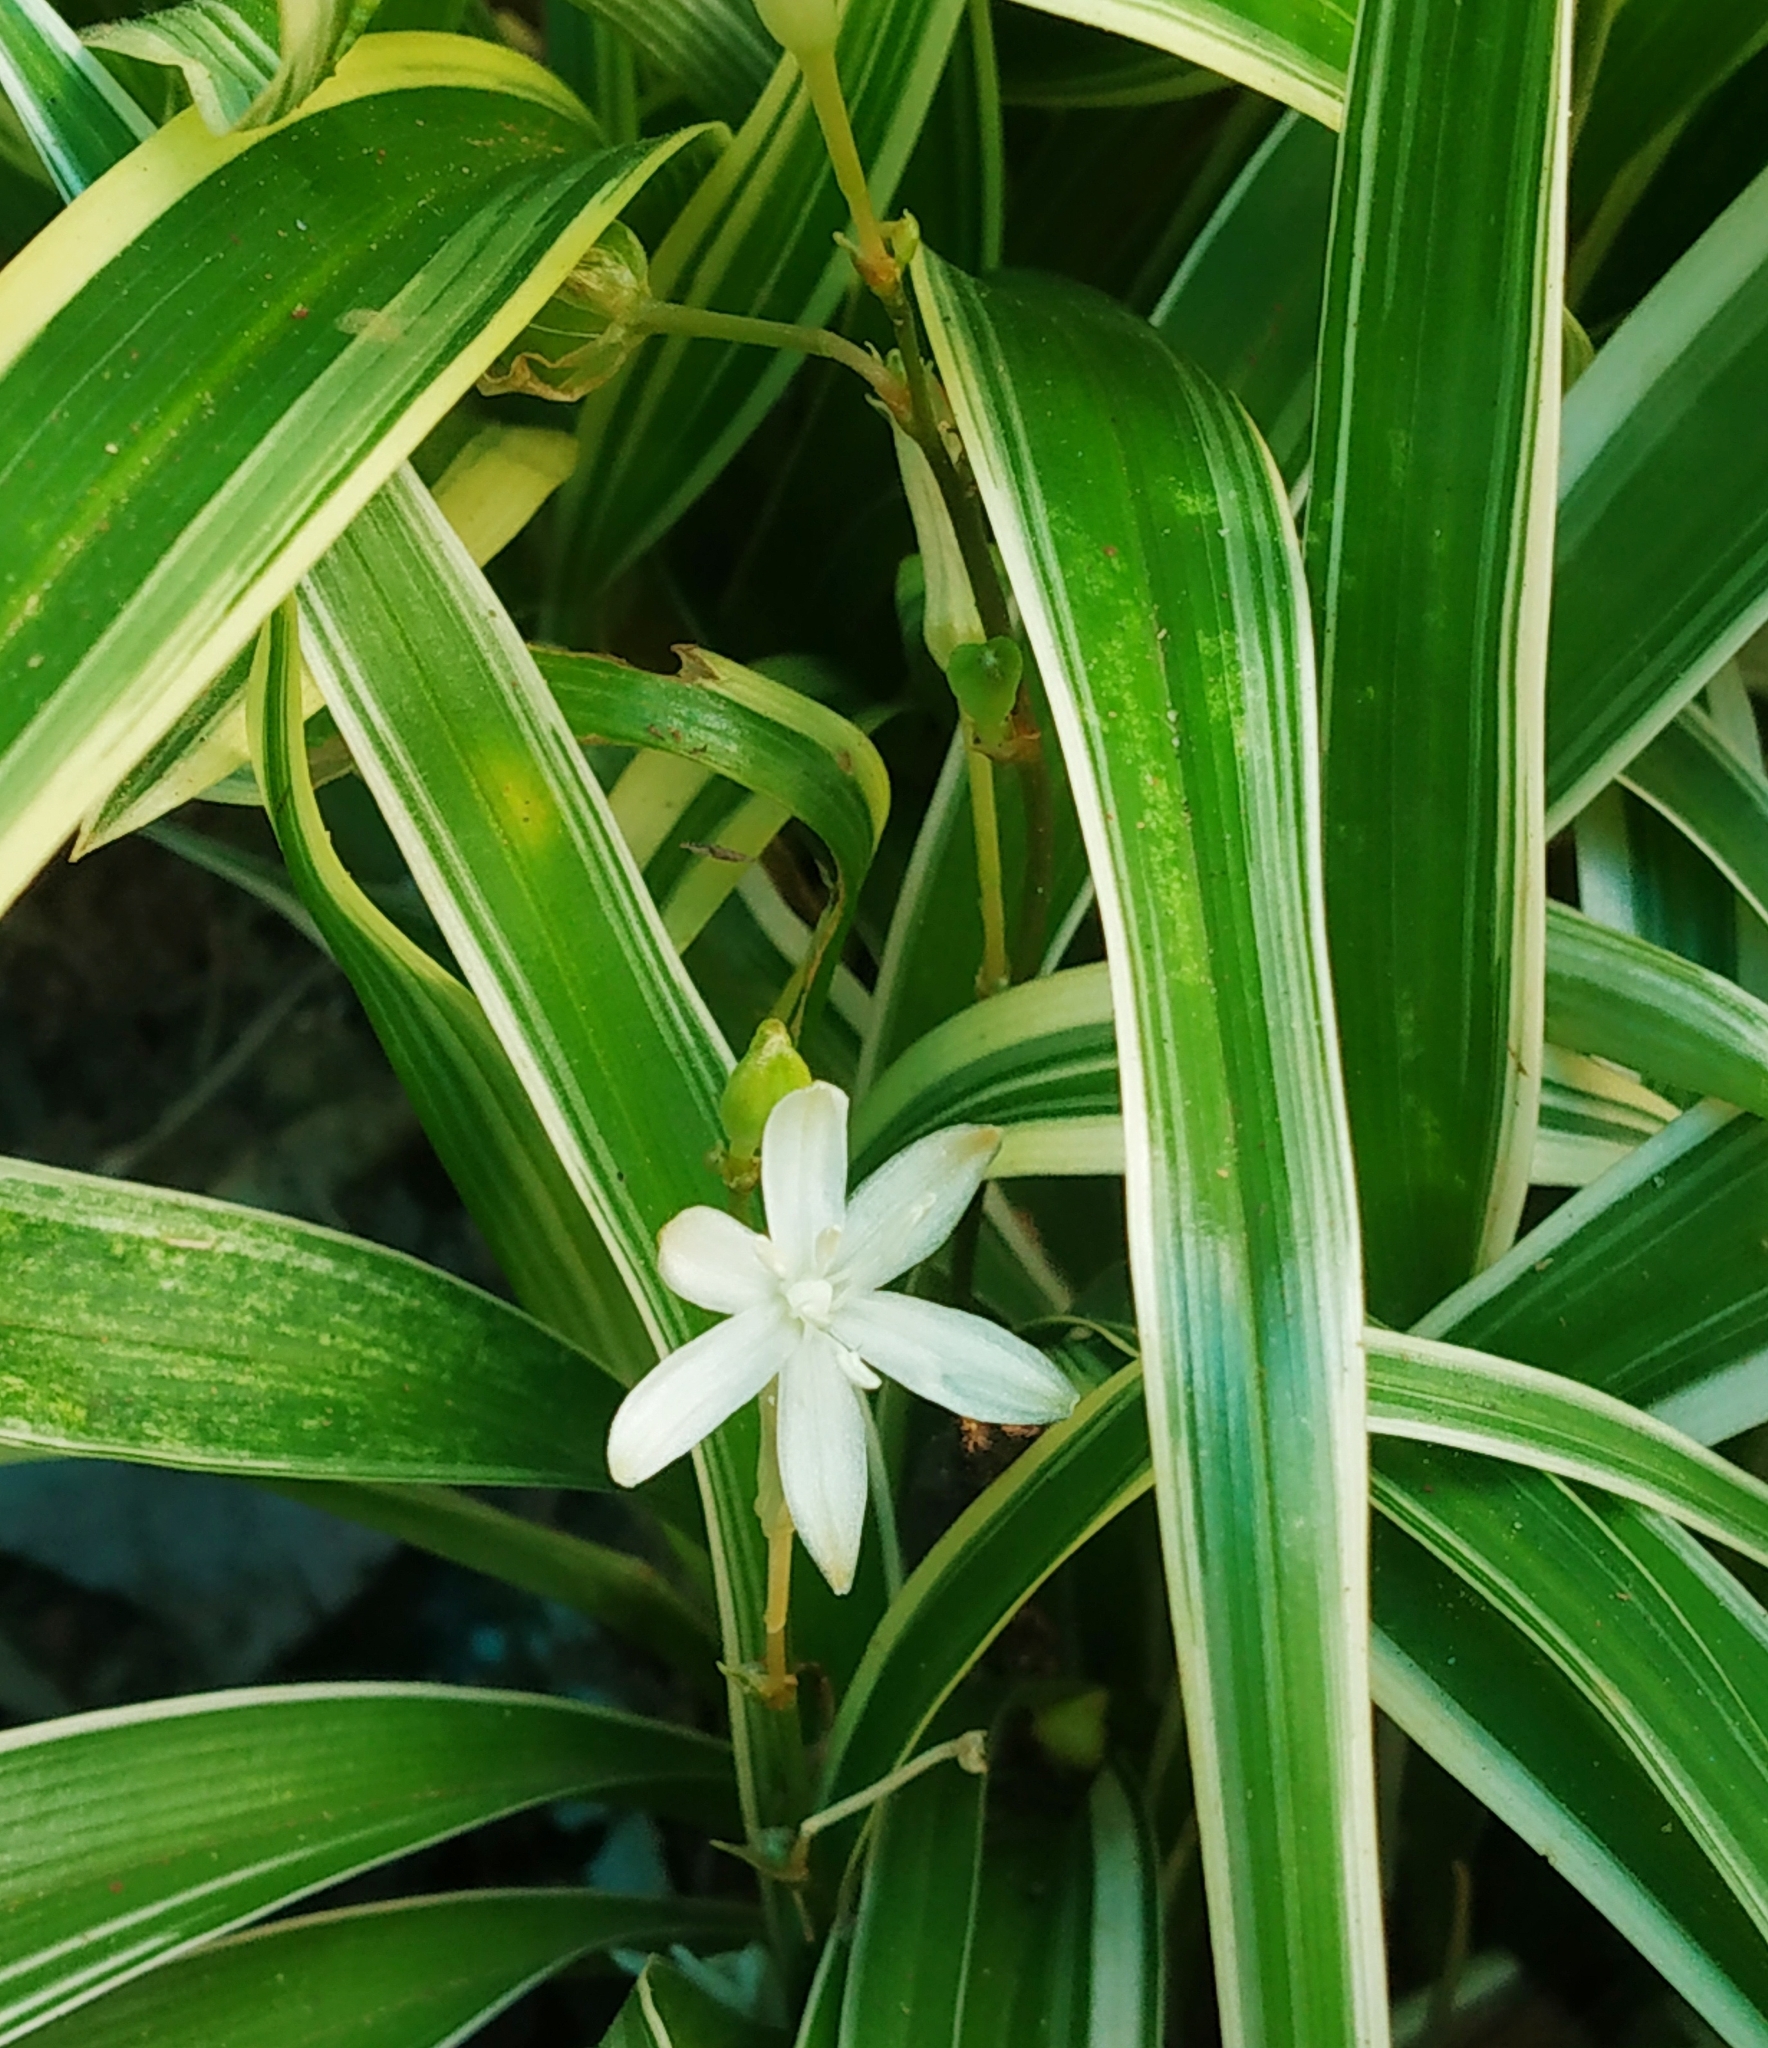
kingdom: Plantae
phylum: Tracheophyta
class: Liliopsida
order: Asparagales
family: Asparagaceae
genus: Chlorophytum
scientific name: Chlorophytum laxum
